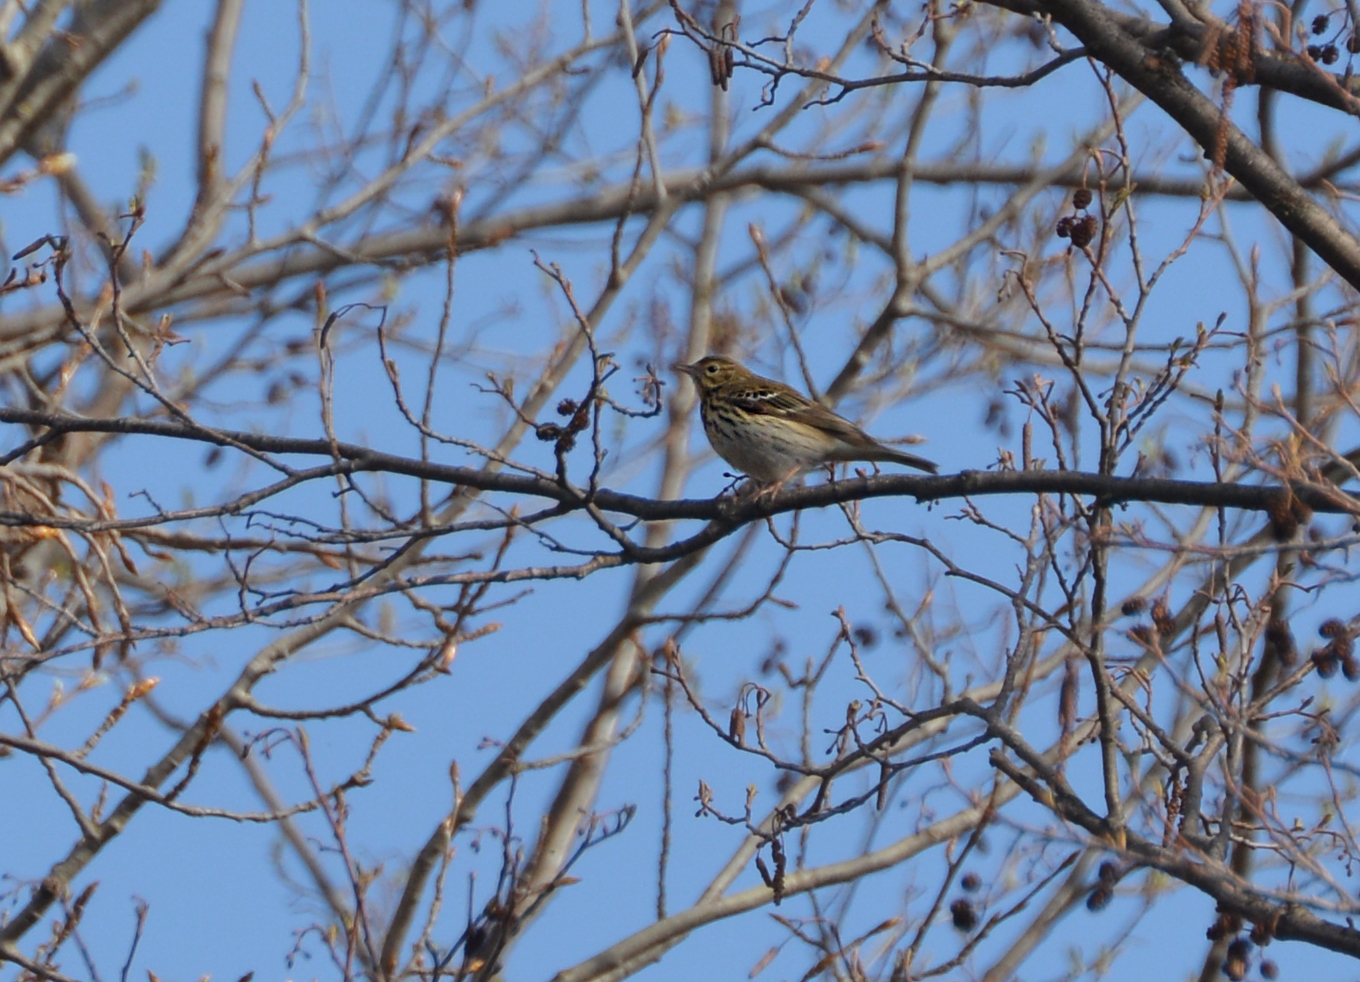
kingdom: Animalia
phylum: Chordata
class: Aves
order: Passeriformes
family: Motacillidae
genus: Anthus
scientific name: Anthus trivialis
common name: Tree pipit
